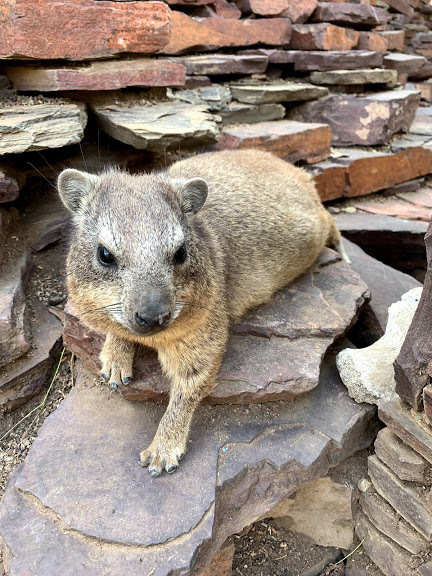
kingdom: Animalia
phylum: Chordata
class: Mammalia
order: Hyracoidea
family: Procaviidae
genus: Procavia
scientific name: Procavia capensis
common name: Rock hyrax
